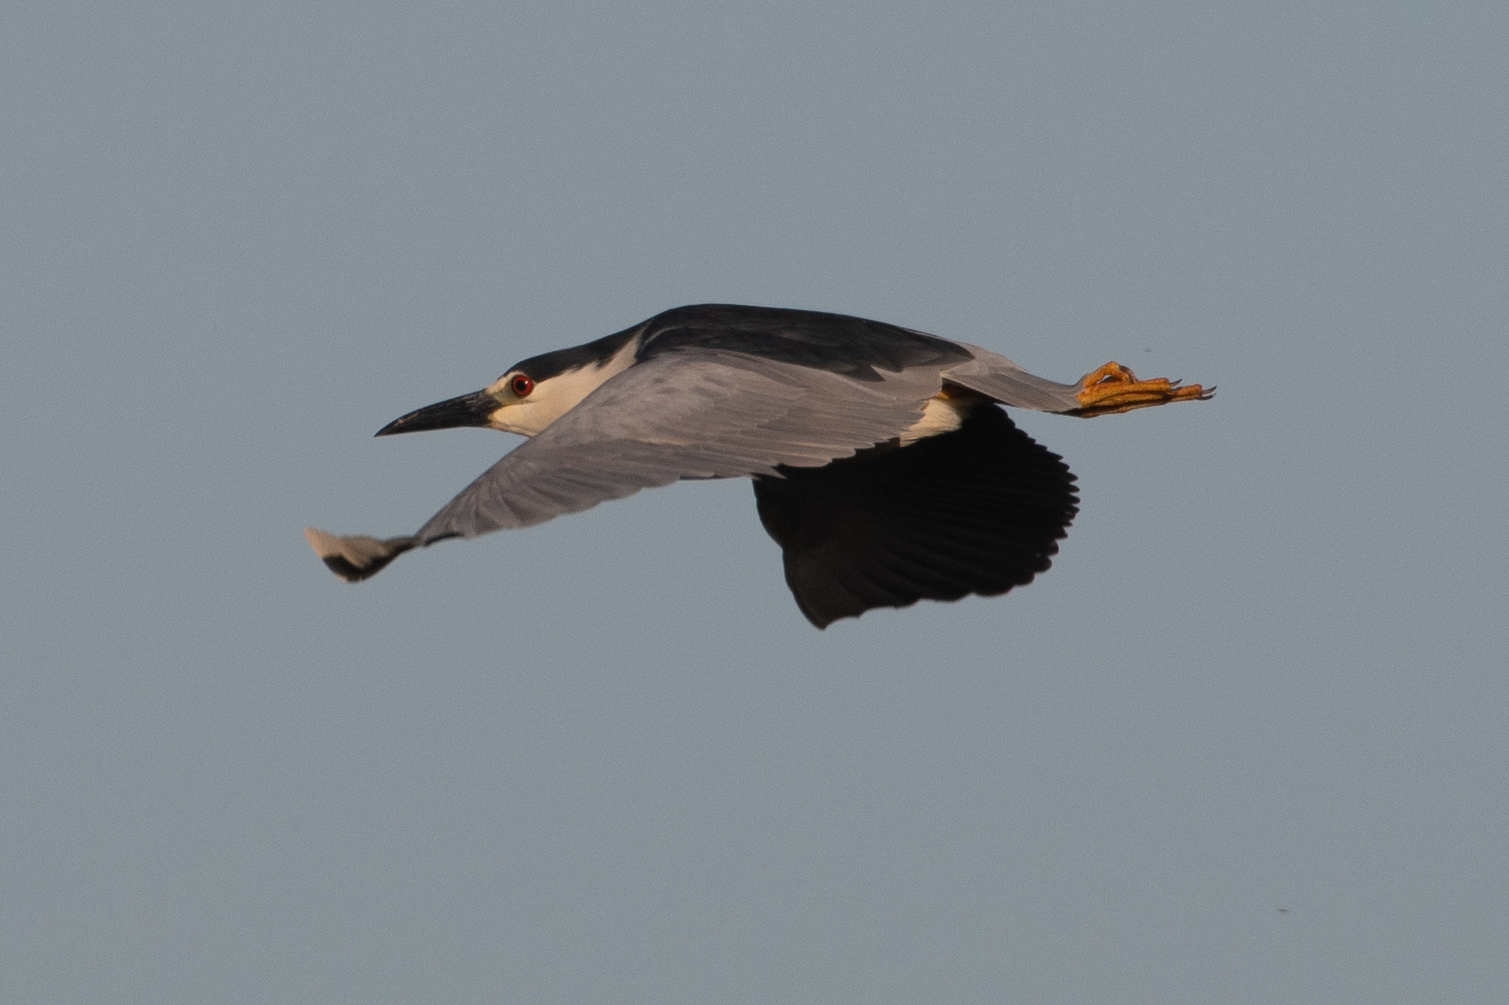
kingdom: Animalia
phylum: Chordata
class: Aves
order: Pelecaniformes
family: Ardeidae
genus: Nycticorax
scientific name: Nycticorax nycticorax
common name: Black-crowned night heron
